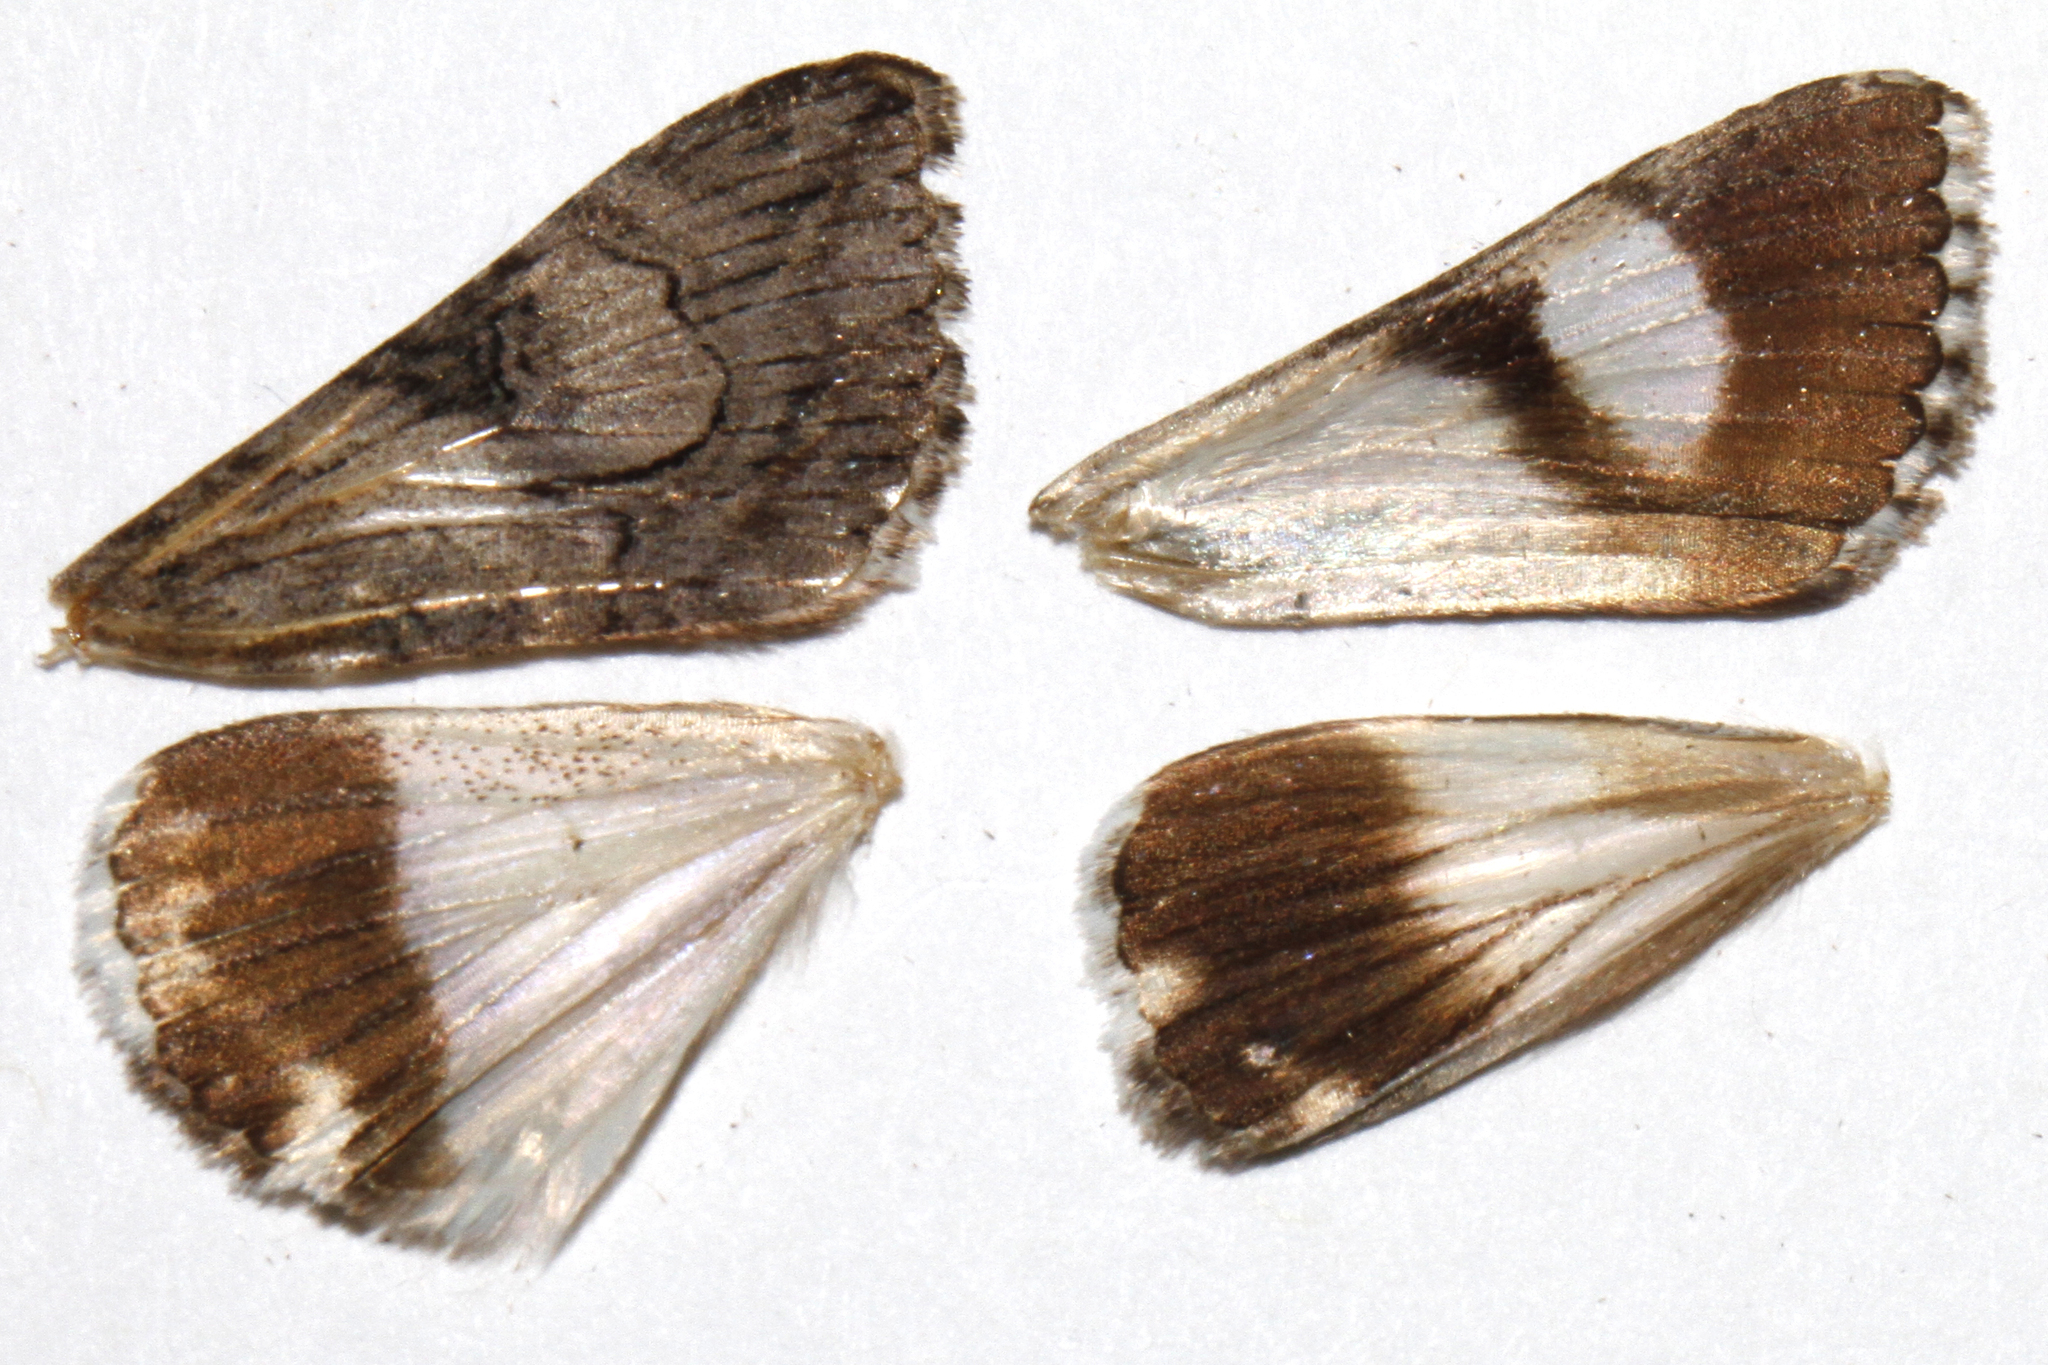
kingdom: Animalia
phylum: Arthropoda
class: Insecta
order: Lepidoptera
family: Erebidae
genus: Melipotis
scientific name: Melipotis jucunda
